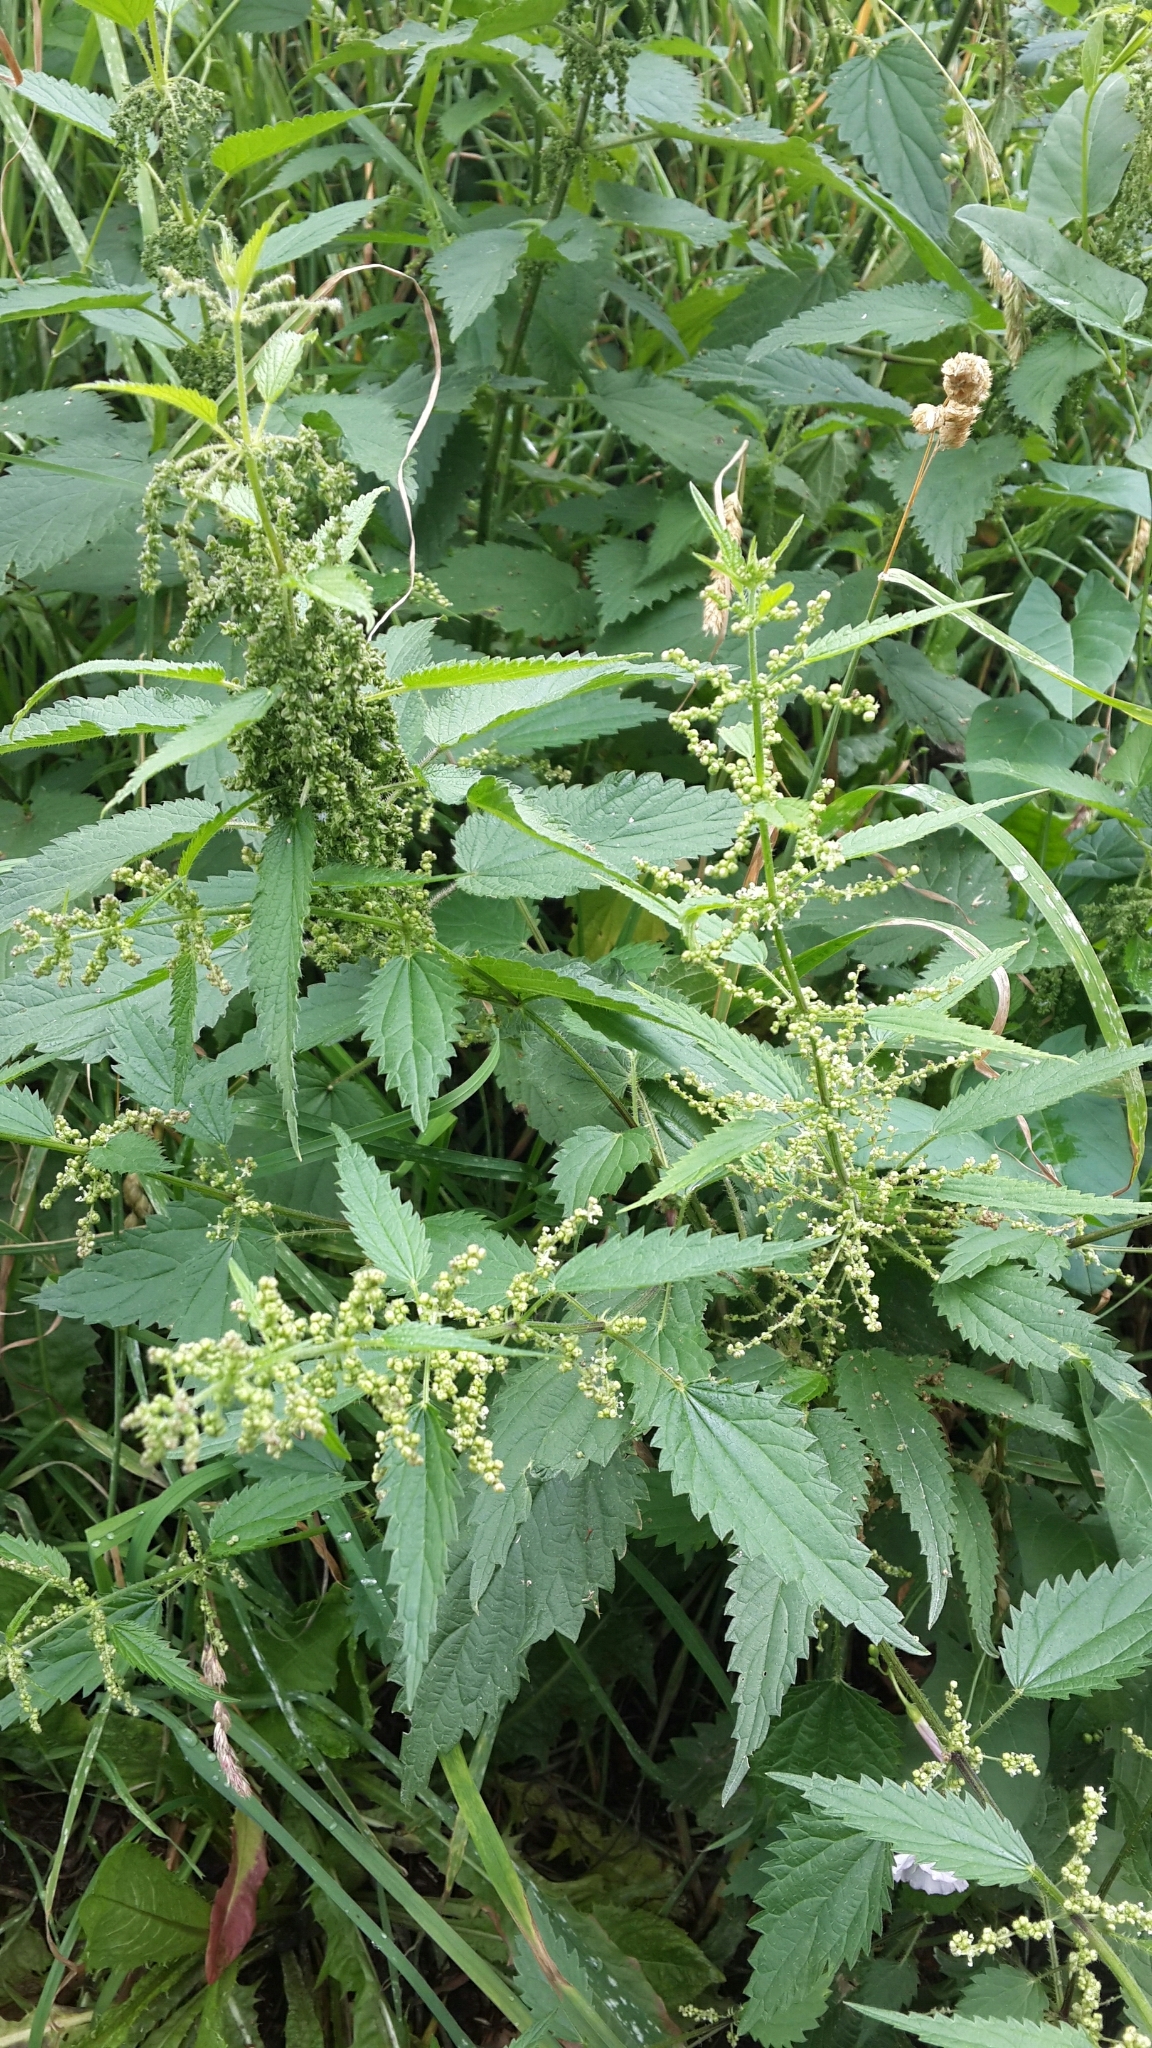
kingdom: Plantae
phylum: Tracheophyta
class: Magnoliopsida
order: Rosales
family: Urticaceae
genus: Urtica
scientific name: Urtica dioica
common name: Common nettle
